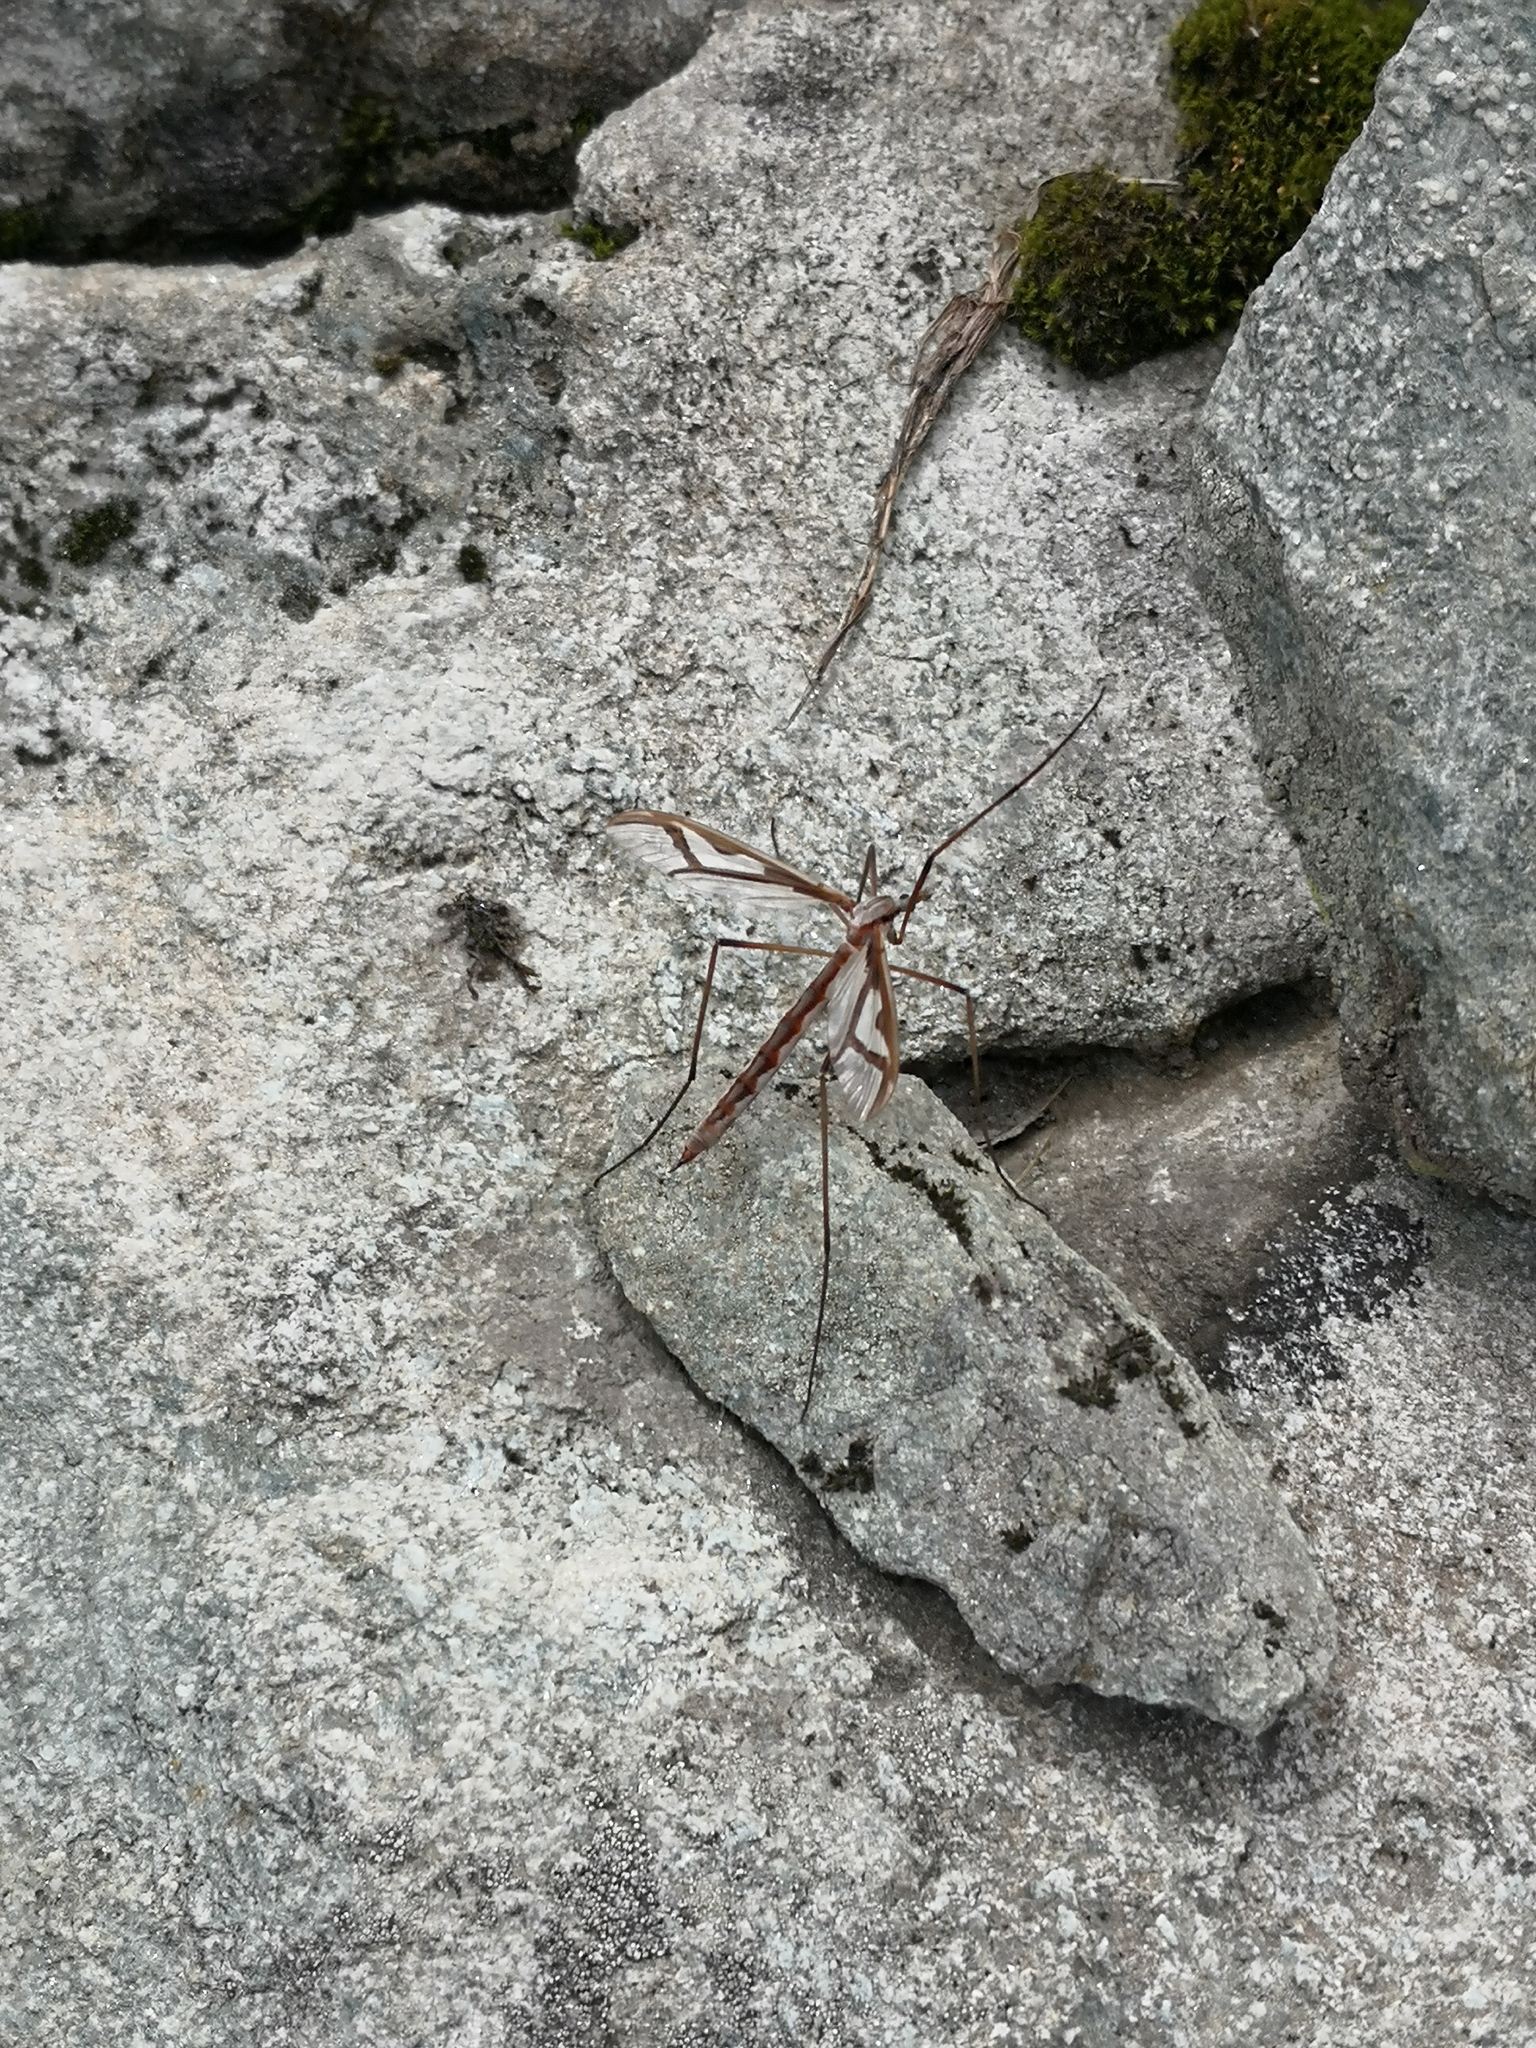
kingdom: Animalia
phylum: Arthropoda
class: Insecta
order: Diptera
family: Pediciidae
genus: Pedicia
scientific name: Pedicia rivosa
